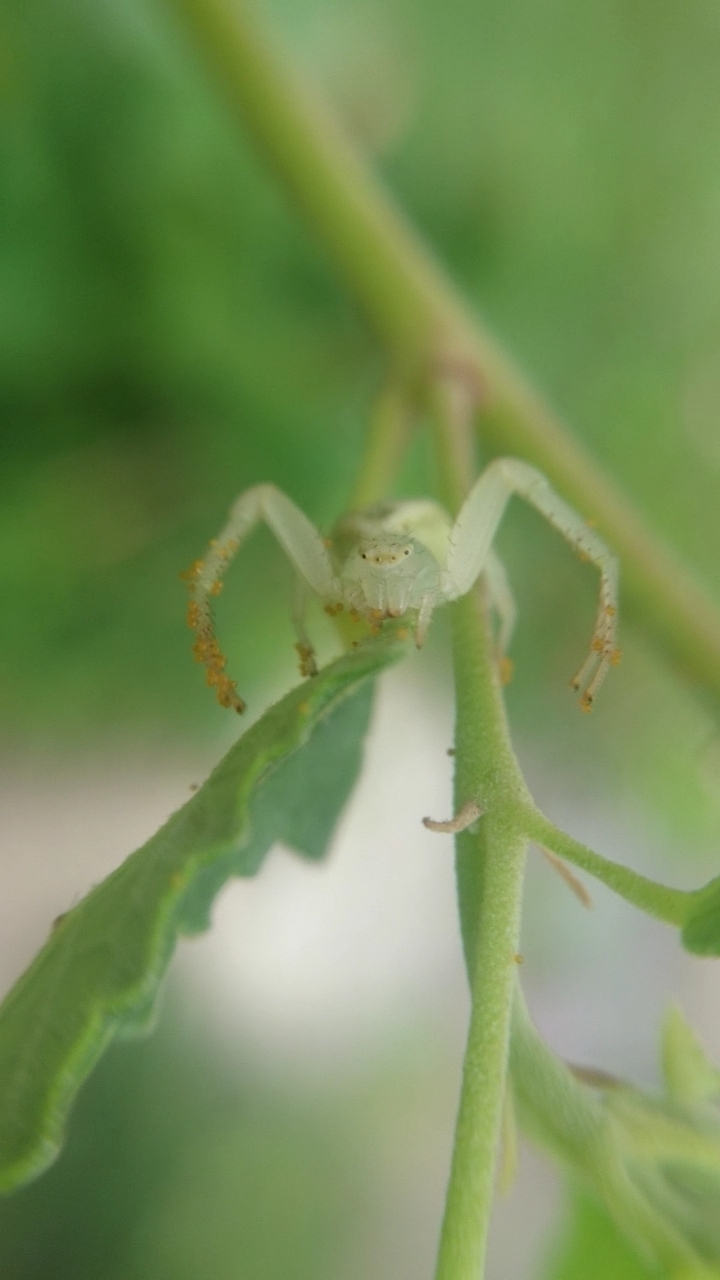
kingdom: Animalia
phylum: Arthropoda
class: Arachnida
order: Araneae
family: Thomisidae
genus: Misumenops
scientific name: Misumenops
